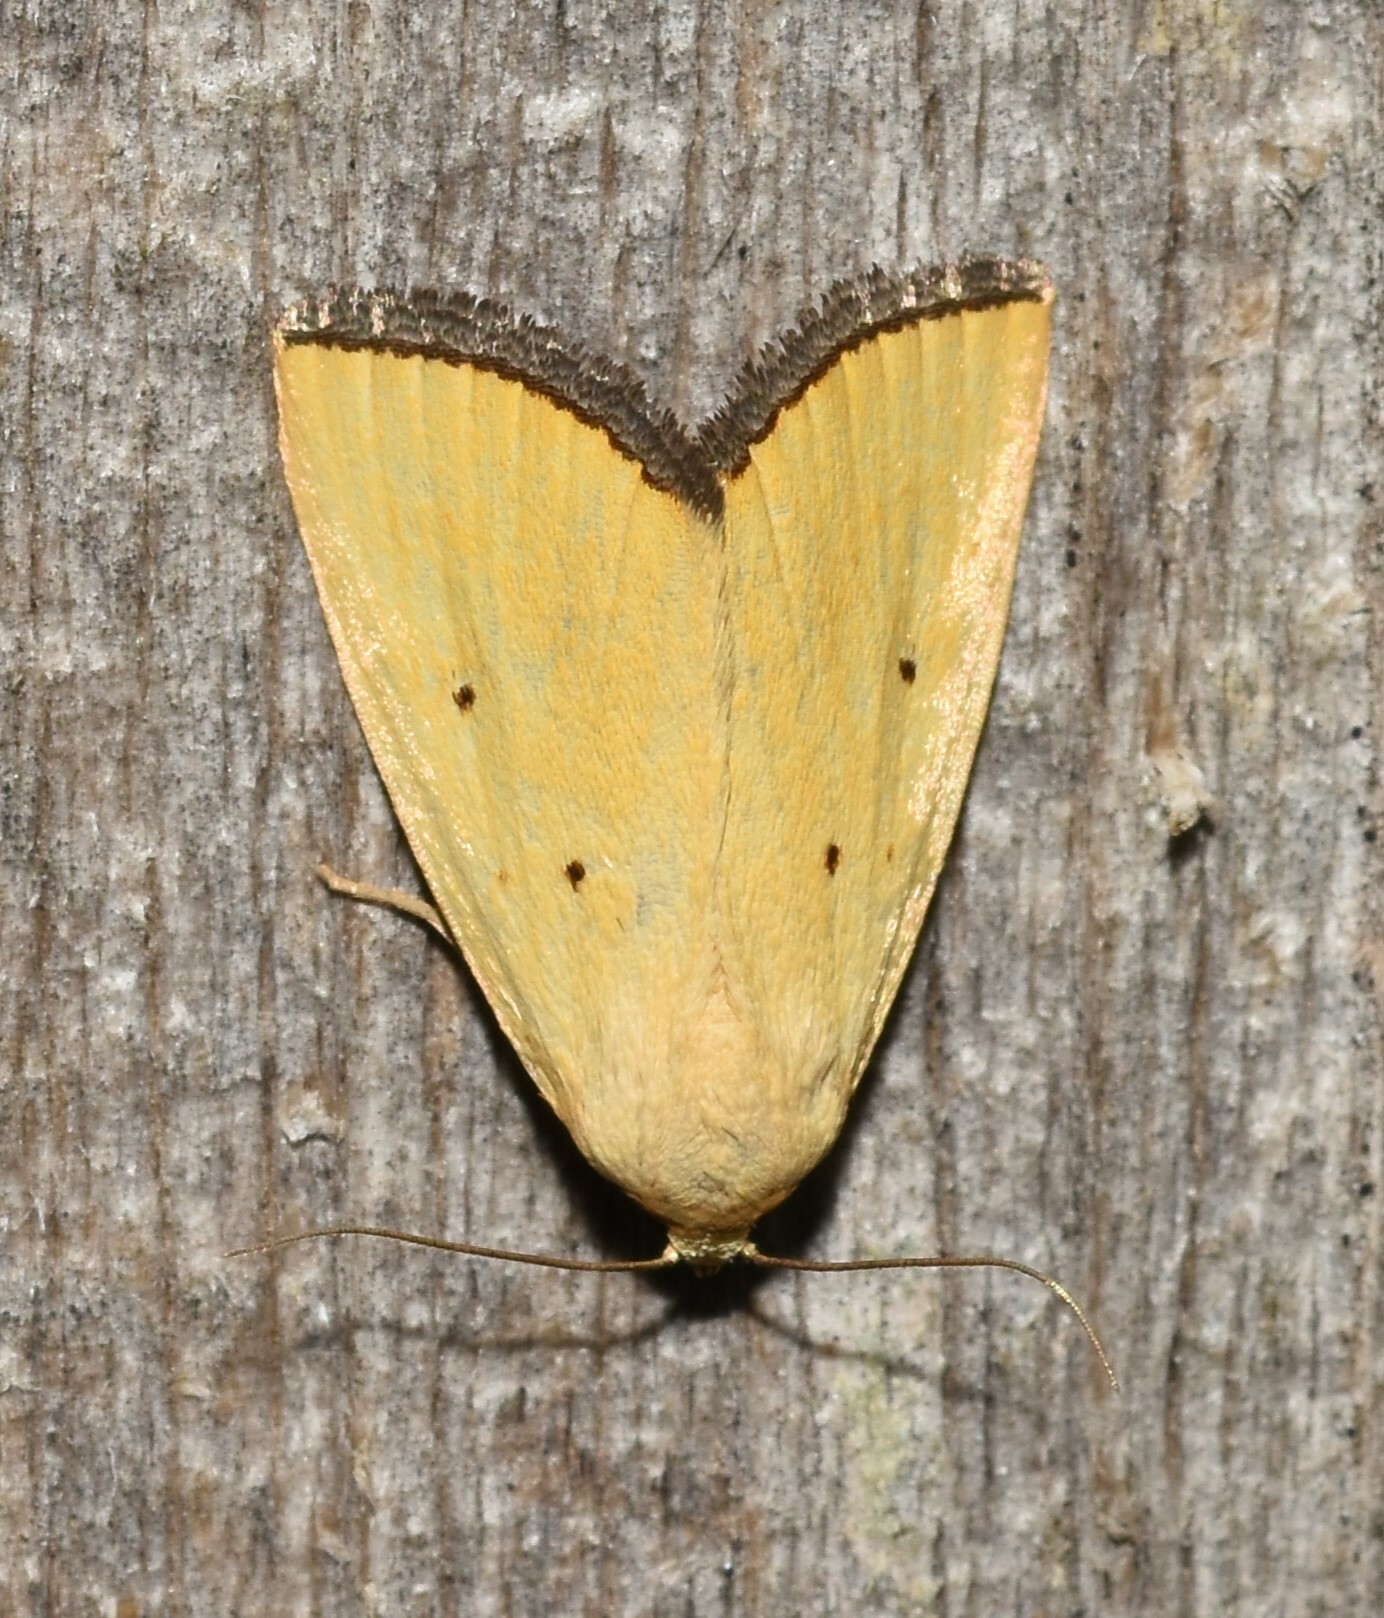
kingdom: Animalia
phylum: Arthropoda
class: Insecta
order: Lepidoptera
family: Noctuidae
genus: Marimatha
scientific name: Marimatha nigrofimbria
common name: Black-bordered lemon moth
